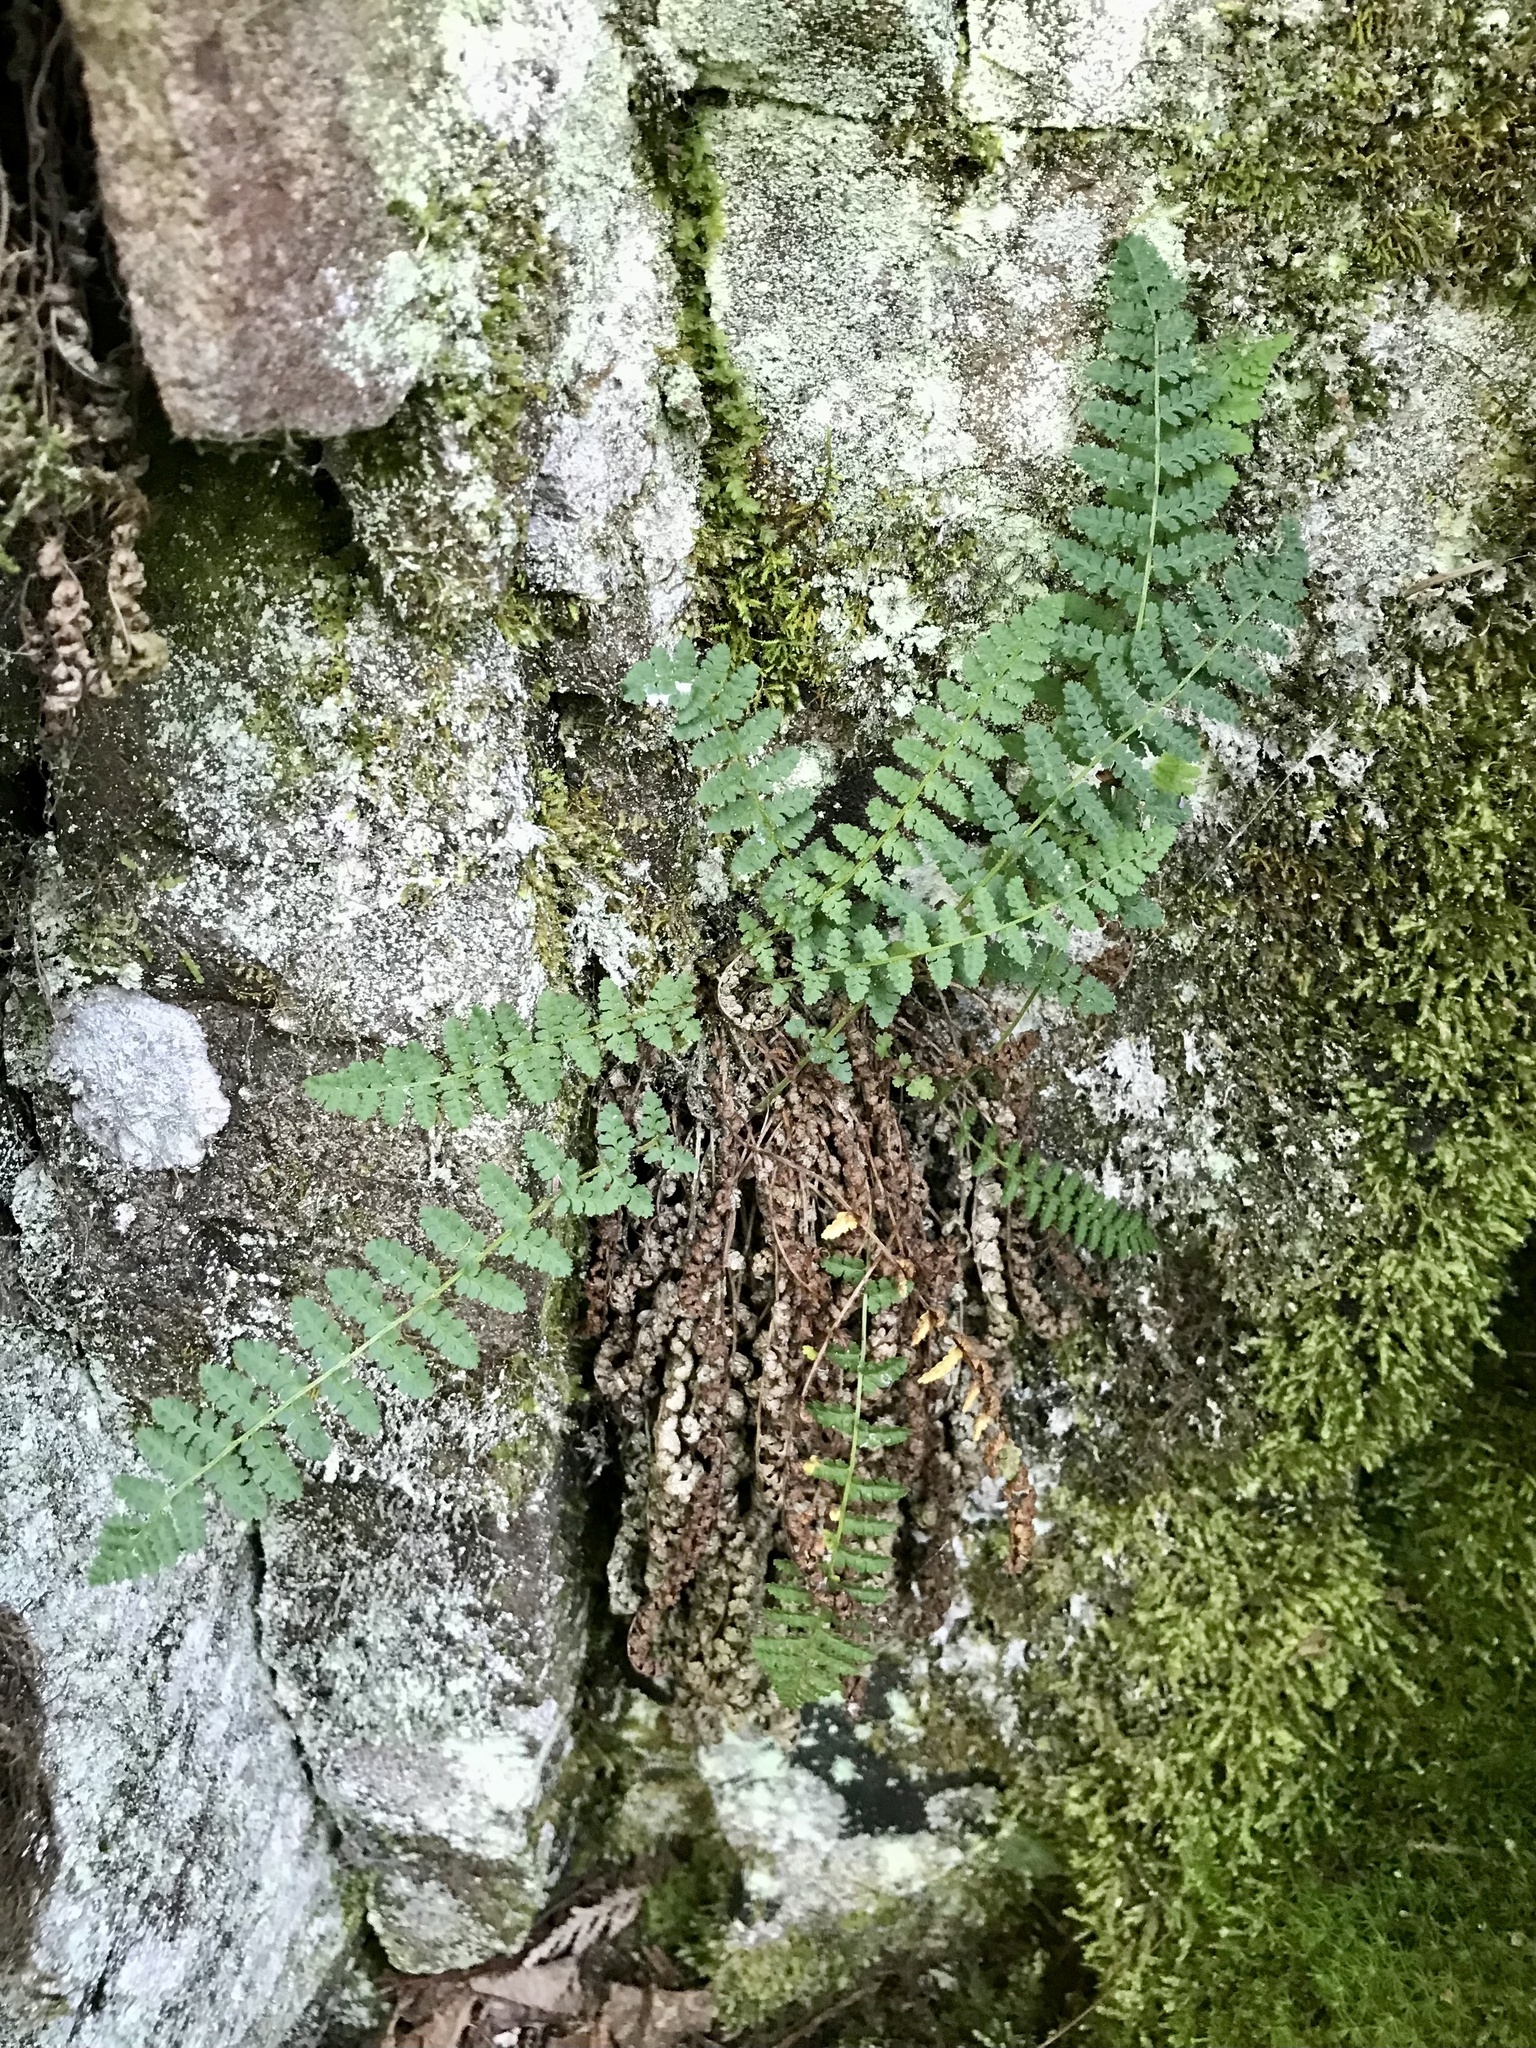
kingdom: Plantae
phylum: Tracheophyta
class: Polypodiopsida
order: Polypodiales
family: Dryopteridaceae
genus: Dryopteris
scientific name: Dryopteris fragrans
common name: Fragrant wood fern
